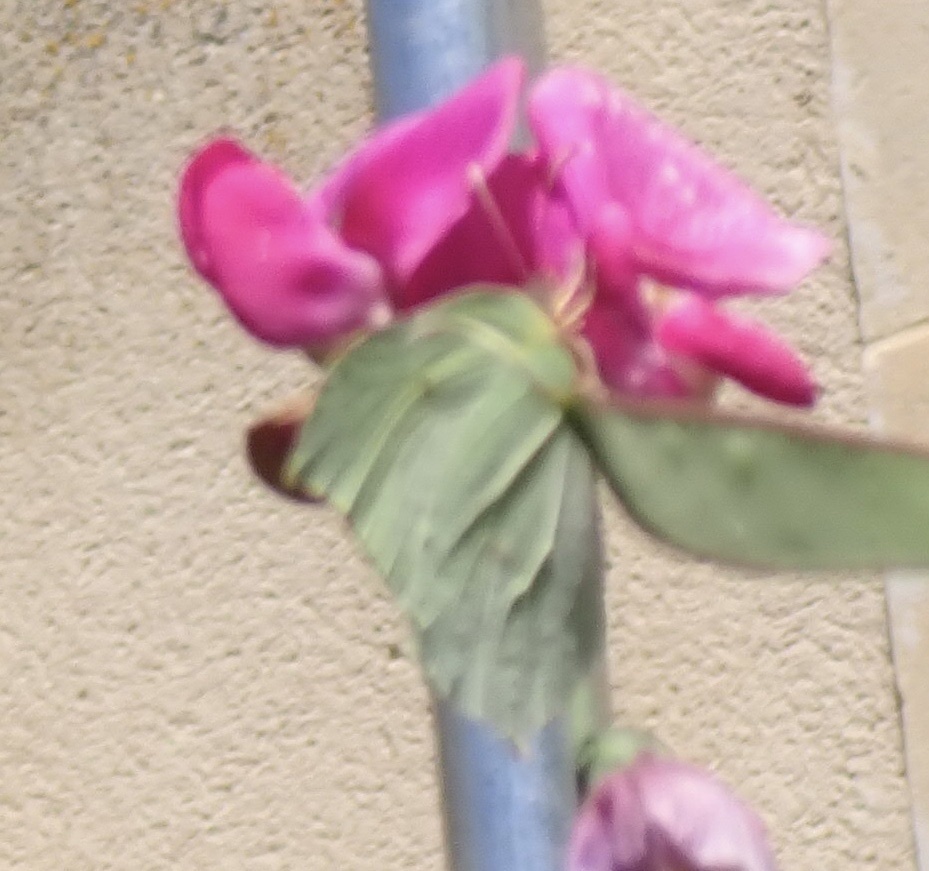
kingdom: Animalia
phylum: Arthropoda
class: Insecta
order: Lepidoptera
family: Pieridae
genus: Gonepteryx
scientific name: Gonepteryx rhamni
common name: Brimstone
